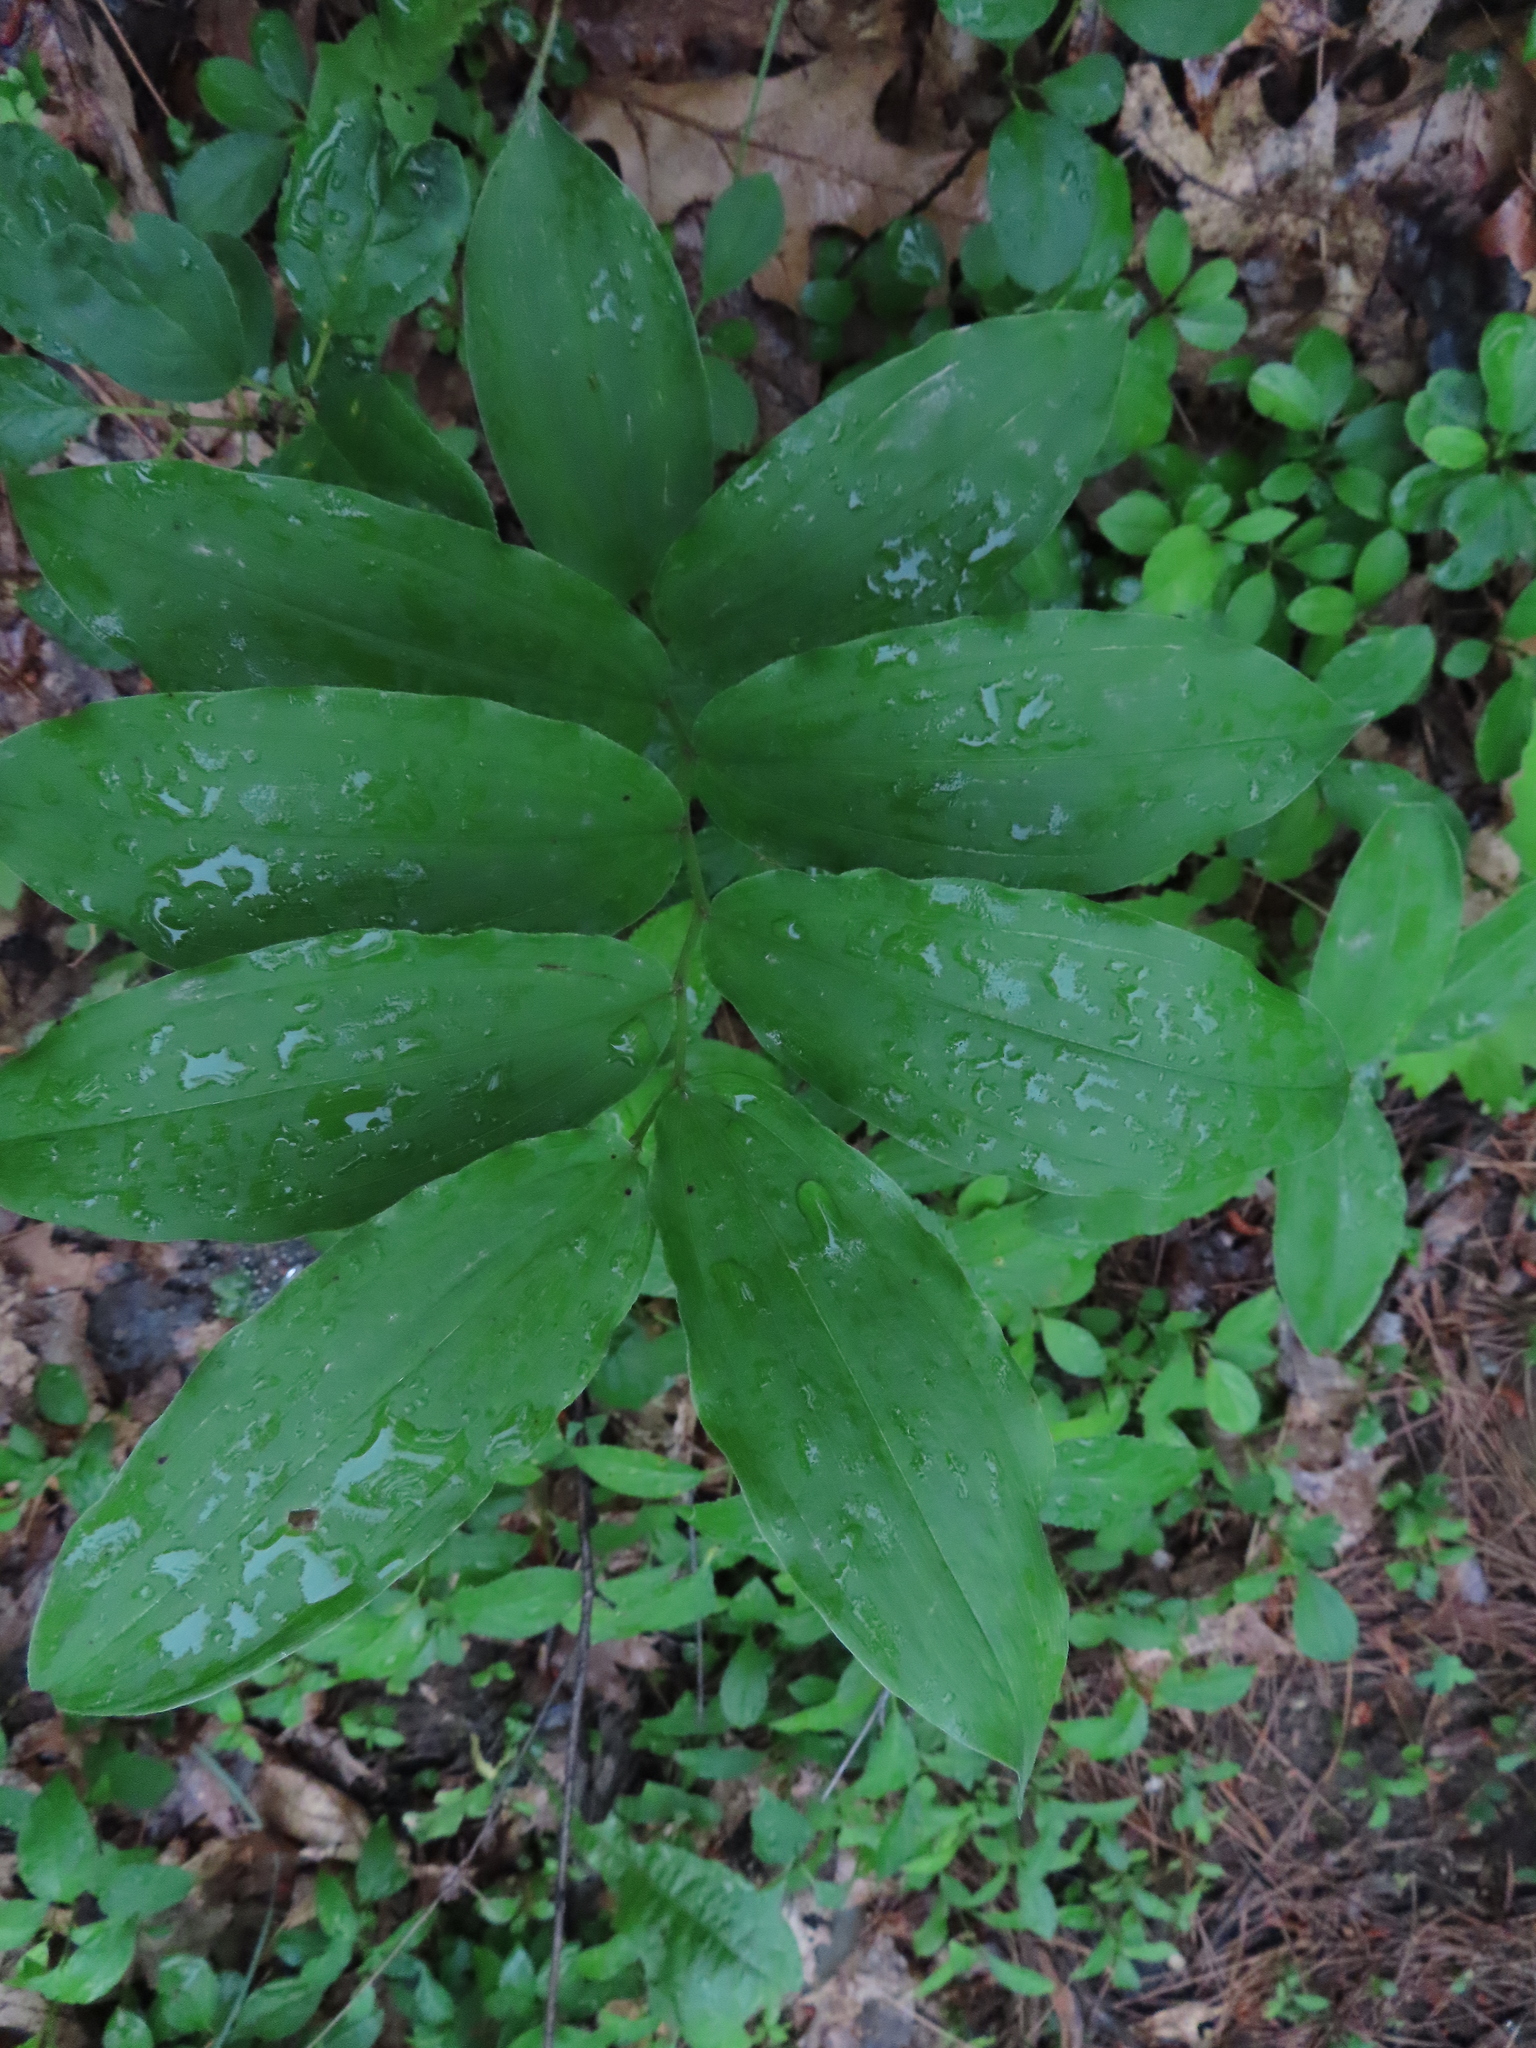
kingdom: Plantae
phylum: Tracheophyta
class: Liliopsida
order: Asparagales
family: Asparagaceae
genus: Maianthemum
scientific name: Maianthemum racemosum
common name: False spikenard
